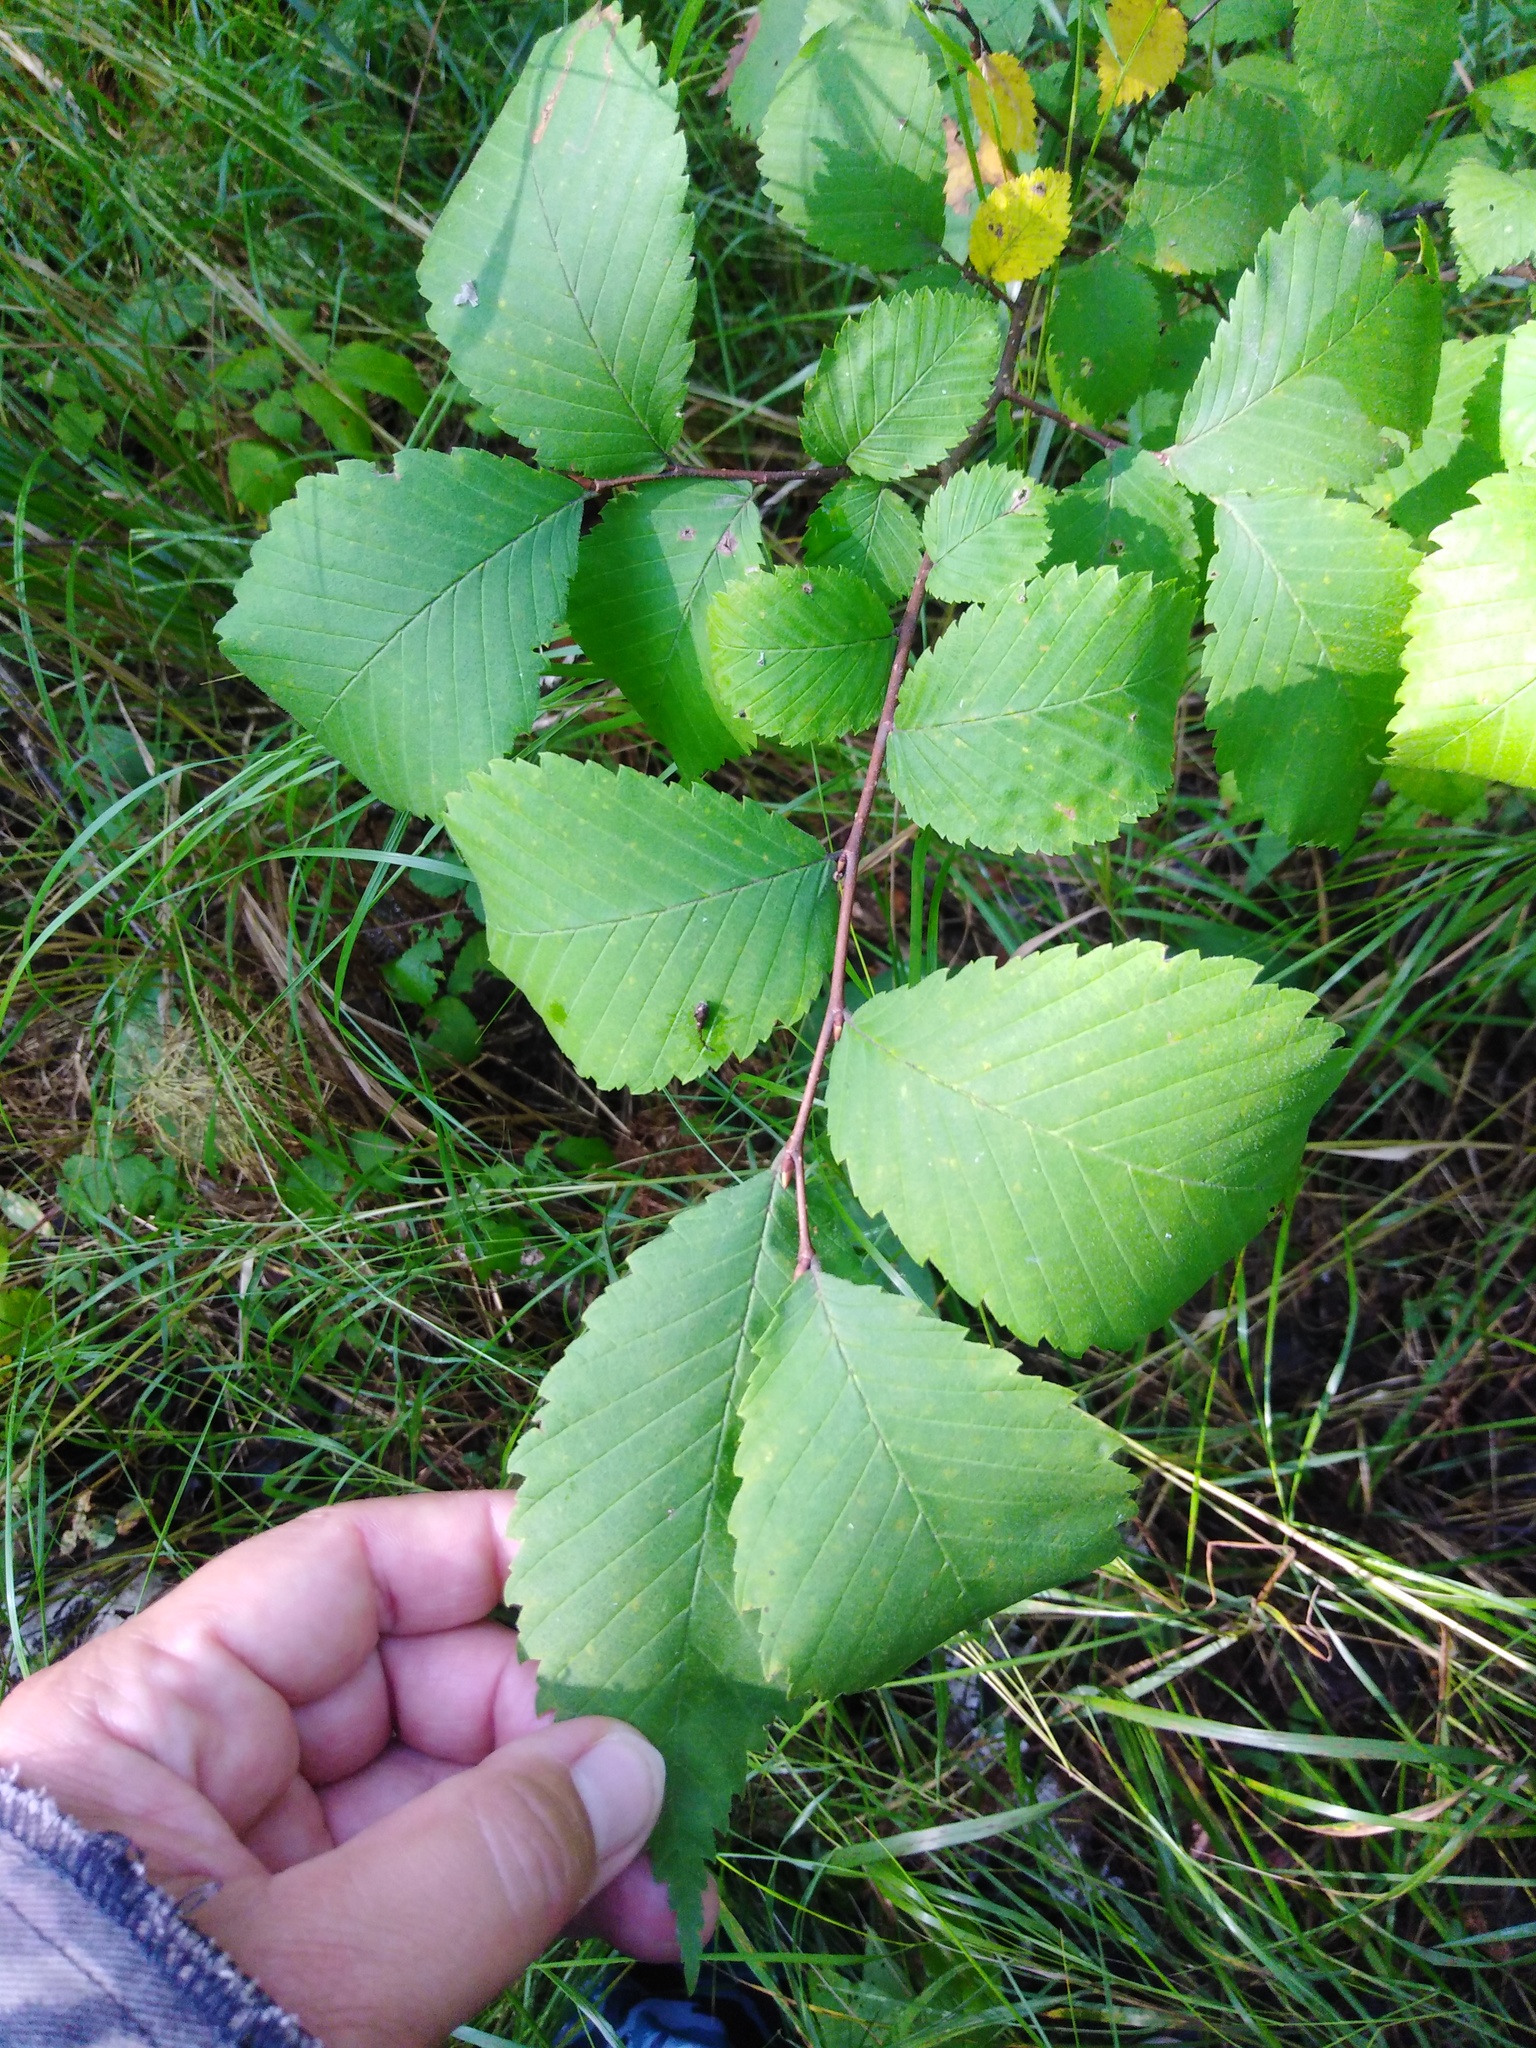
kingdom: Plantae
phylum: Tracheophyta
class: Magnoliopsida
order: Rosales
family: Ulmaceae
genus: Ulmus
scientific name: Ulmus glabra
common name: Wych elm
